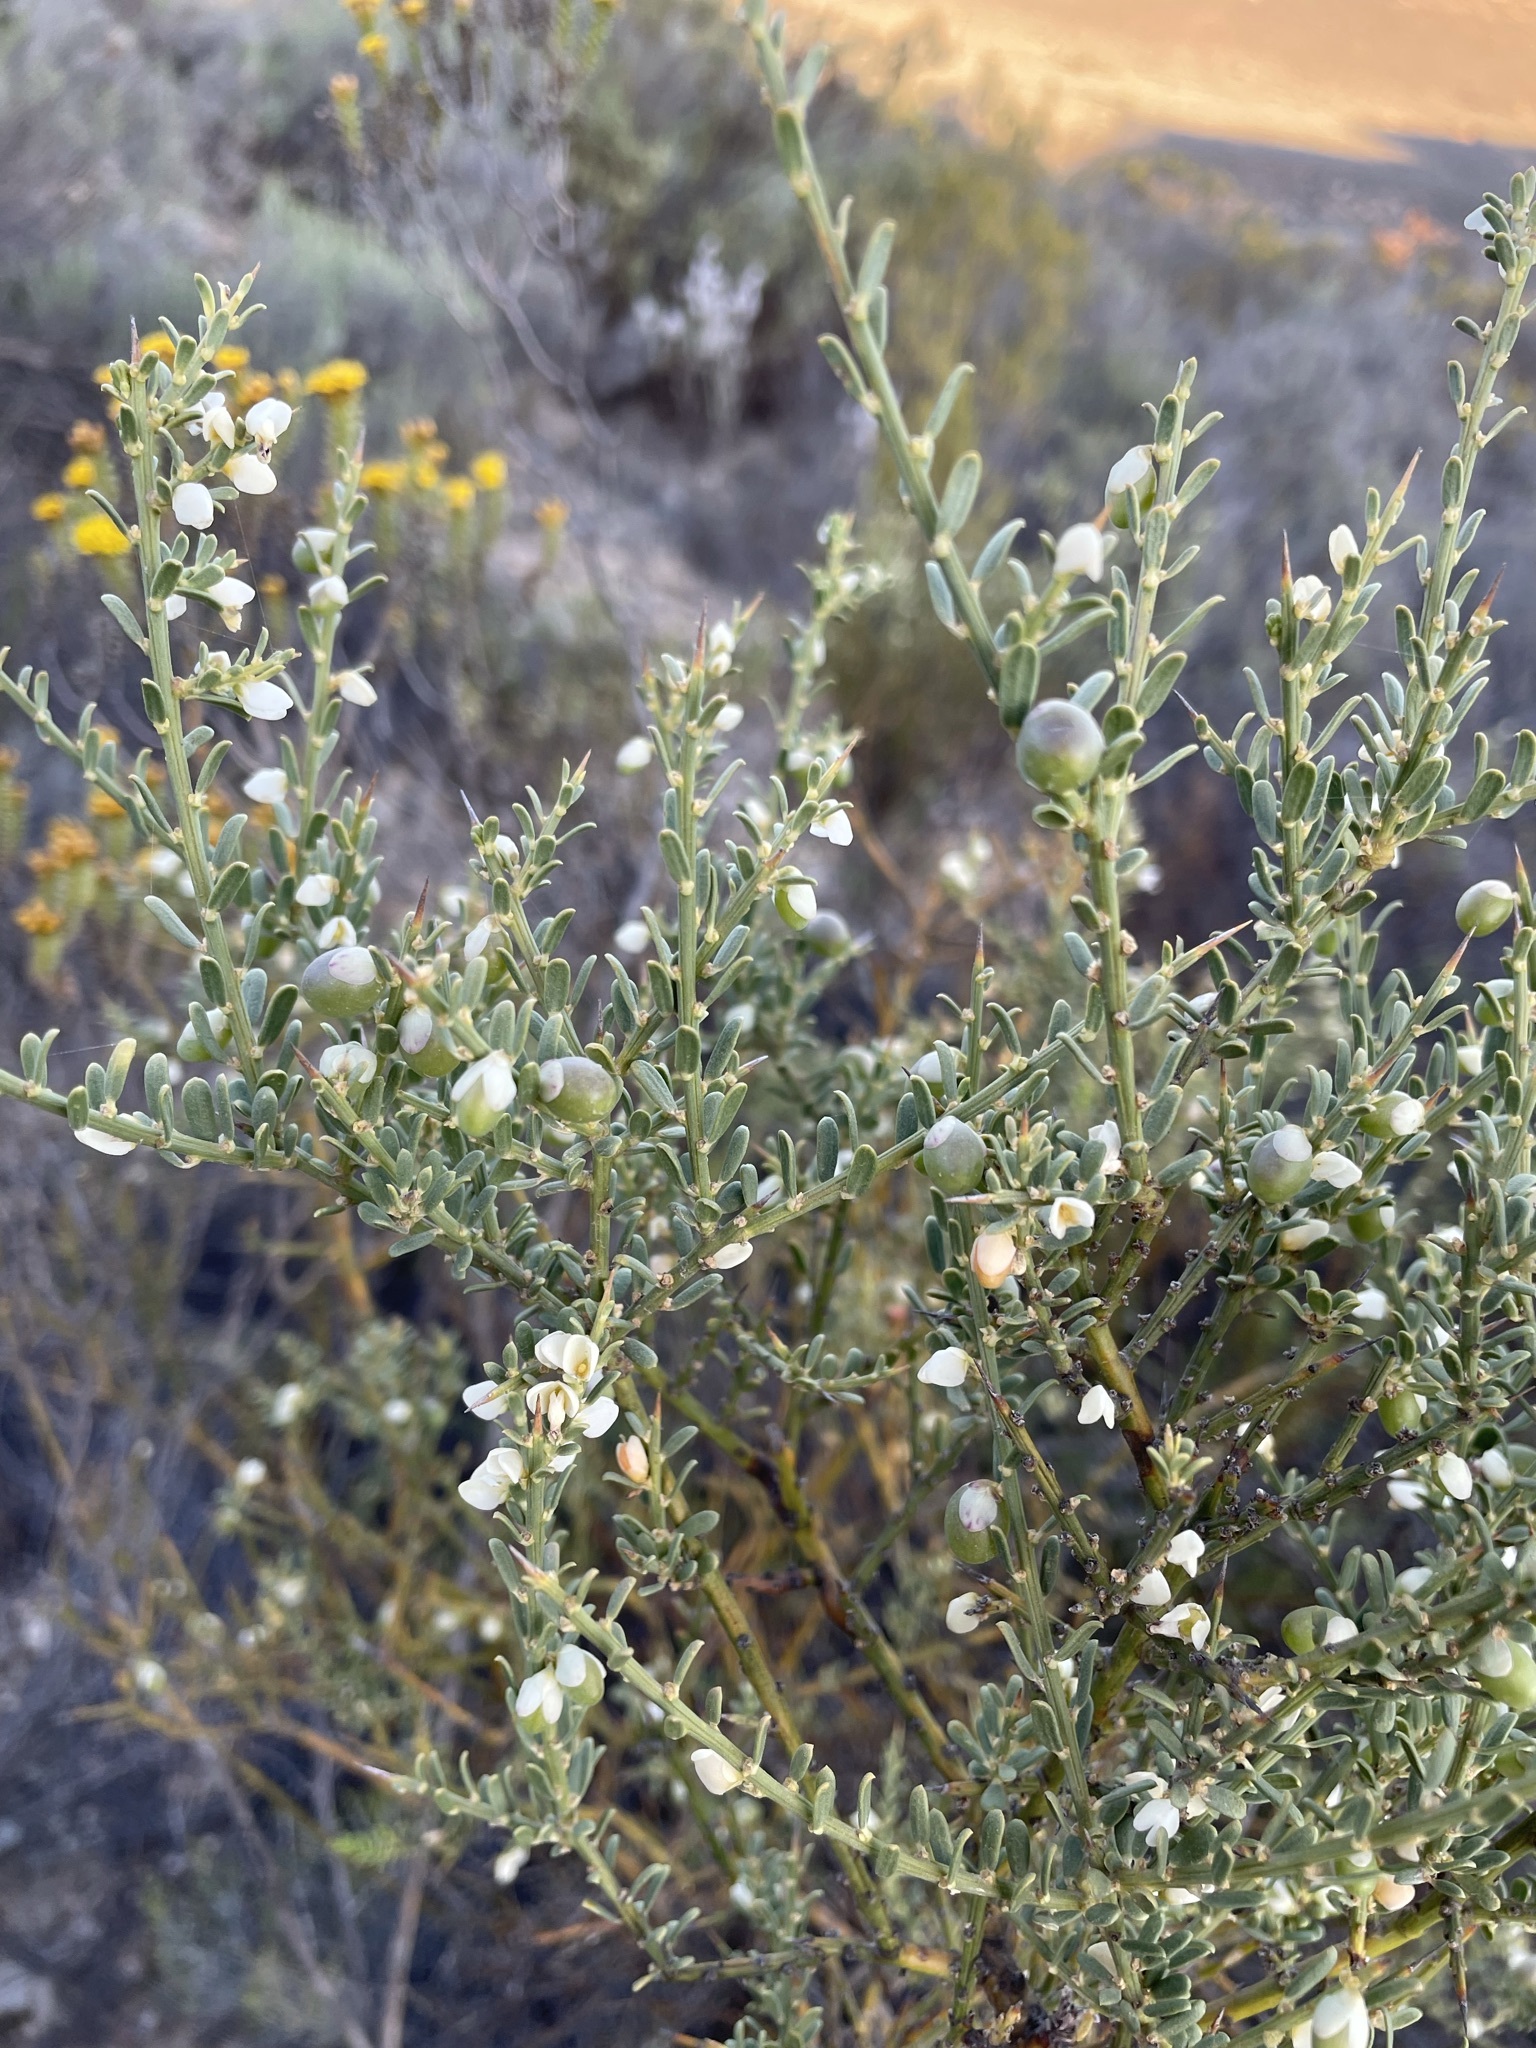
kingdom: Plantae
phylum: Tracheophyta
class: Magnoliopsida
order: Fabales
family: Polygalaceae
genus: Muraltia
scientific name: Muraltia spinosa
